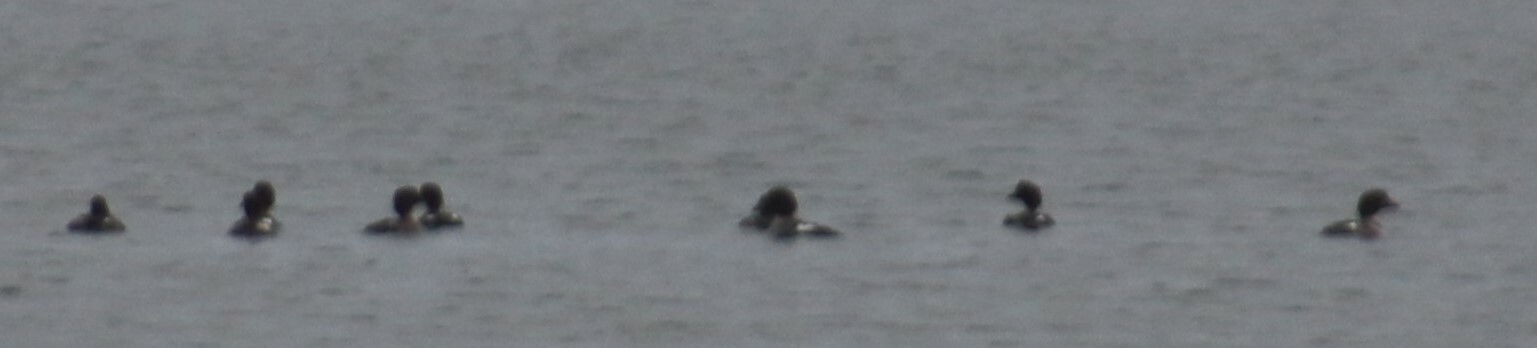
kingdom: Animalia
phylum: Chordata
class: Aves
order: Anseriformes
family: Anatidae
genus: Bucephala
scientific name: Bucephala clangula
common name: Common goldeneye
